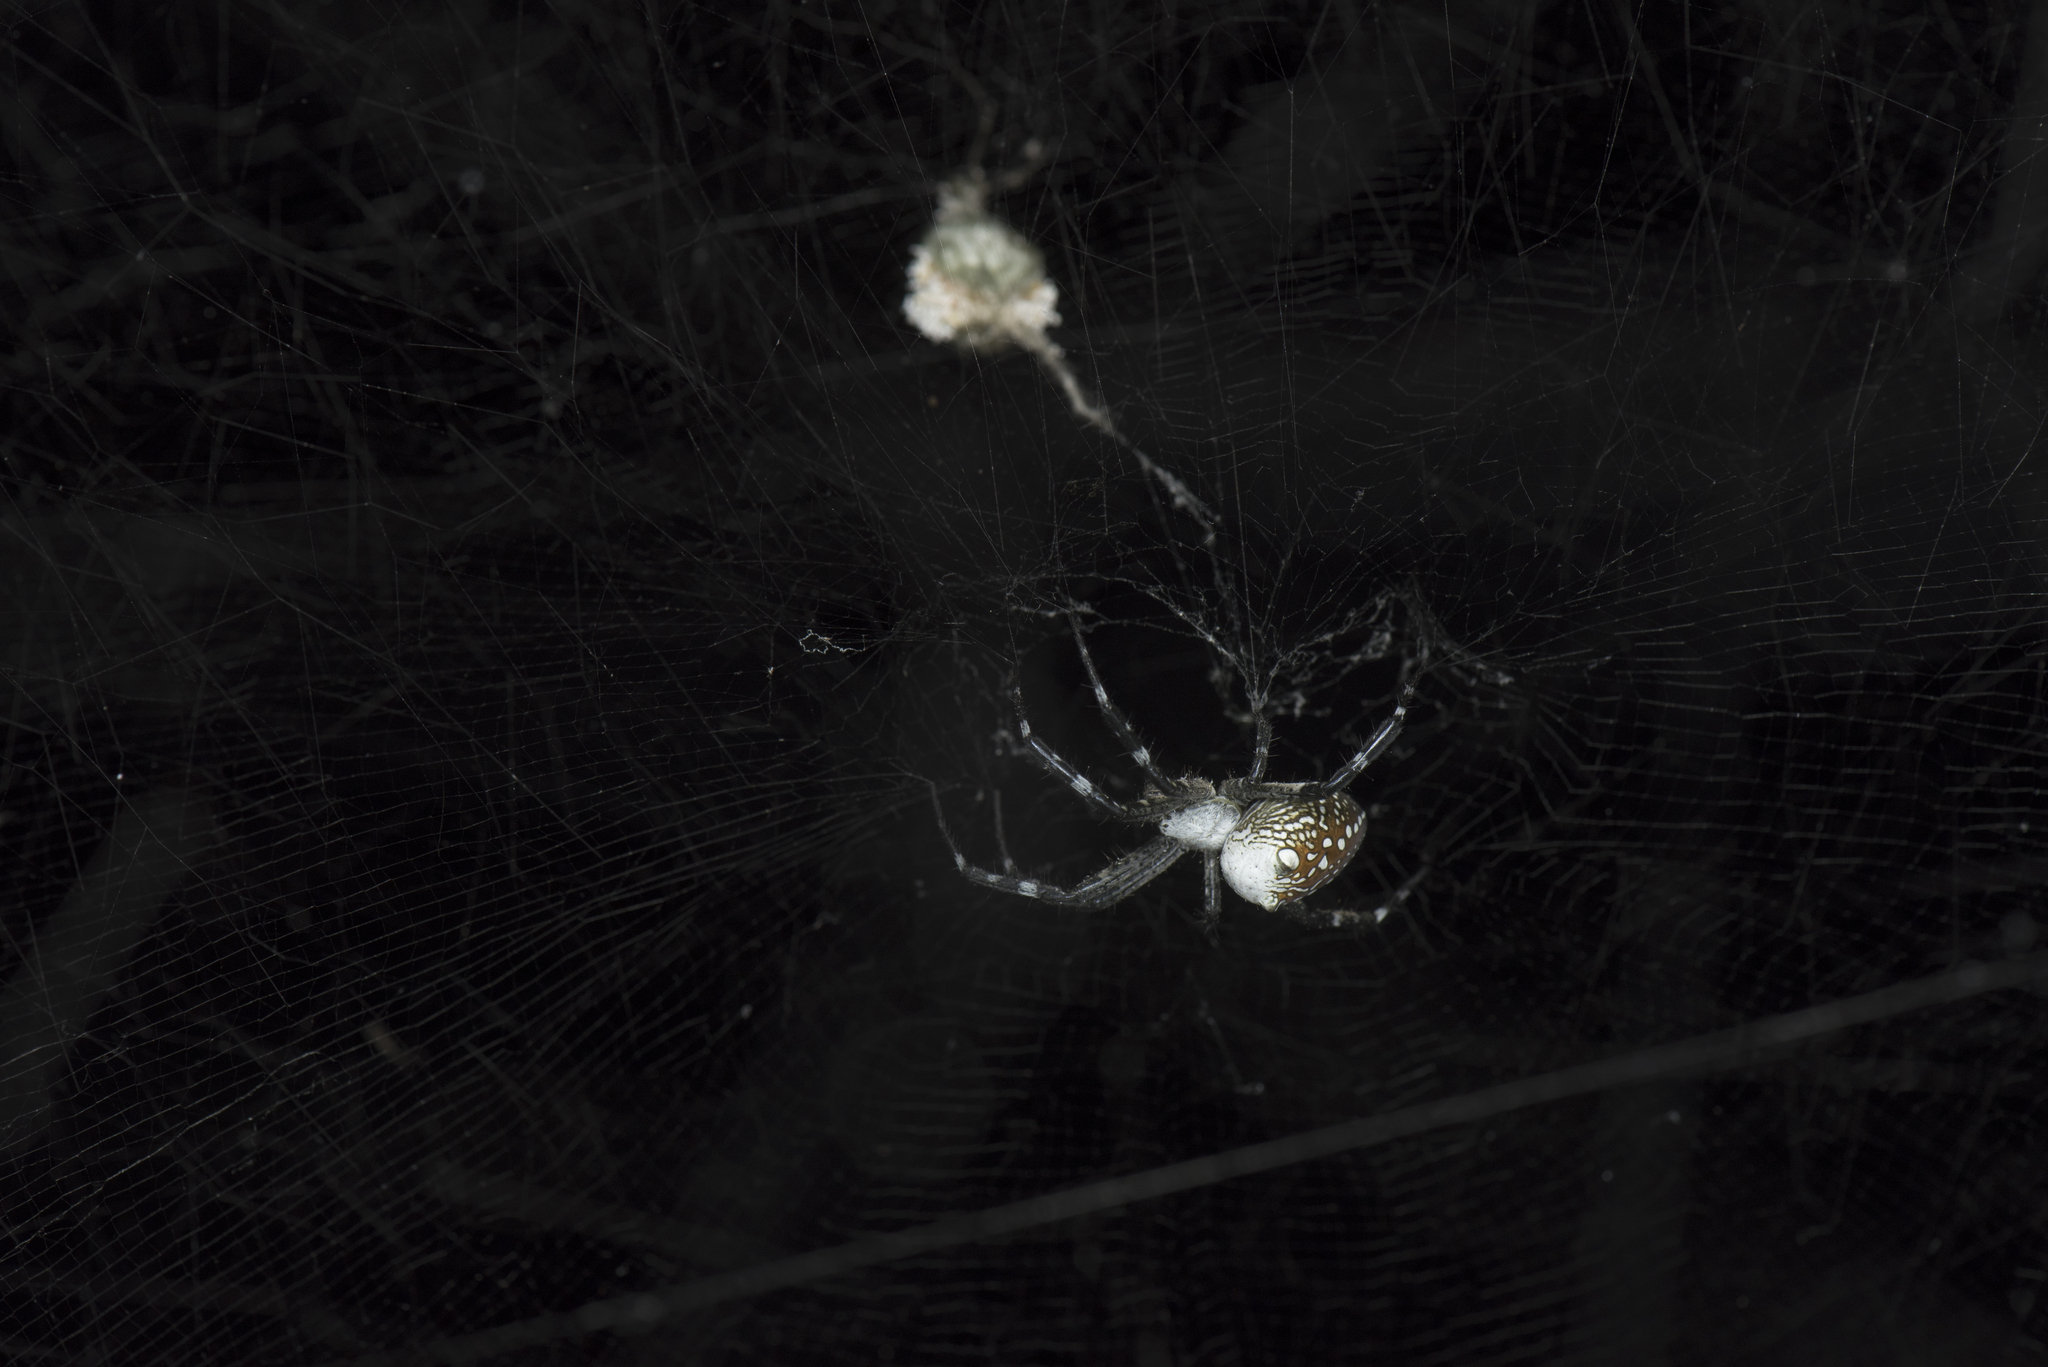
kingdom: Chromista
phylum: Ochrophyta
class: Dictyochophyceae
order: Pedinellales
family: Cyrtophoraceae
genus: Cyrtophora
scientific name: Cyrtophora moluccensis
